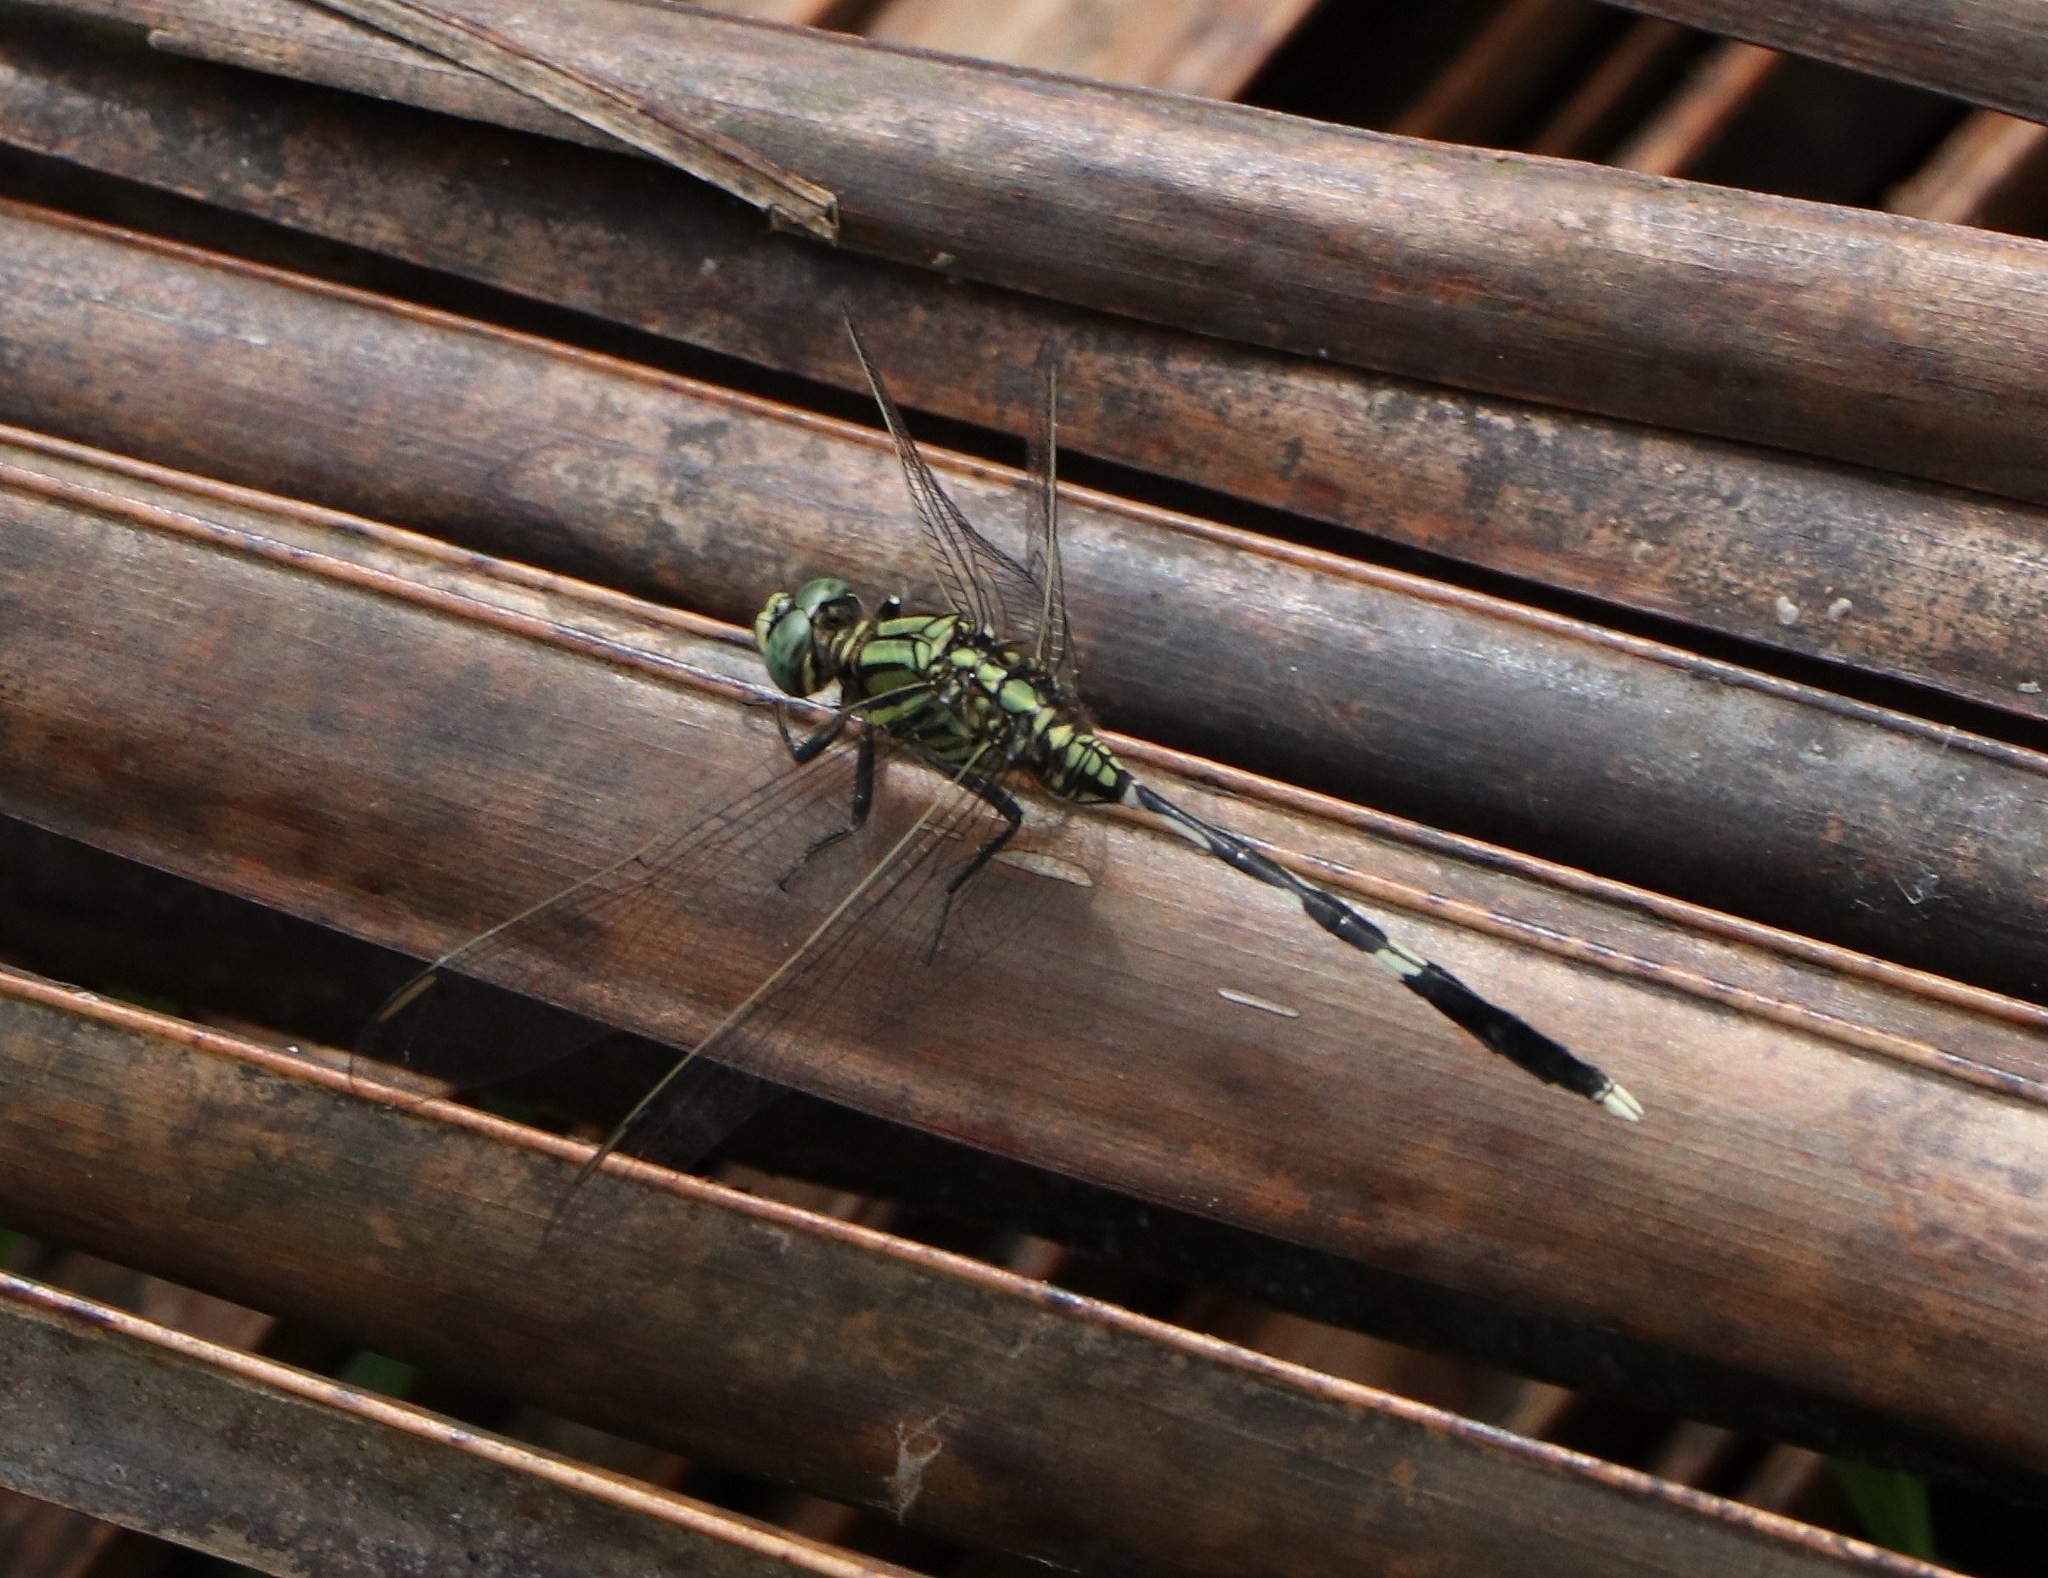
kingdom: Animalia
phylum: Arthropoda
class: Insecta
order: Odonata
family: Libellulidae
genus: Orthetrum
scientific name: Orthetrum sabina
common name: Slender skimmer
